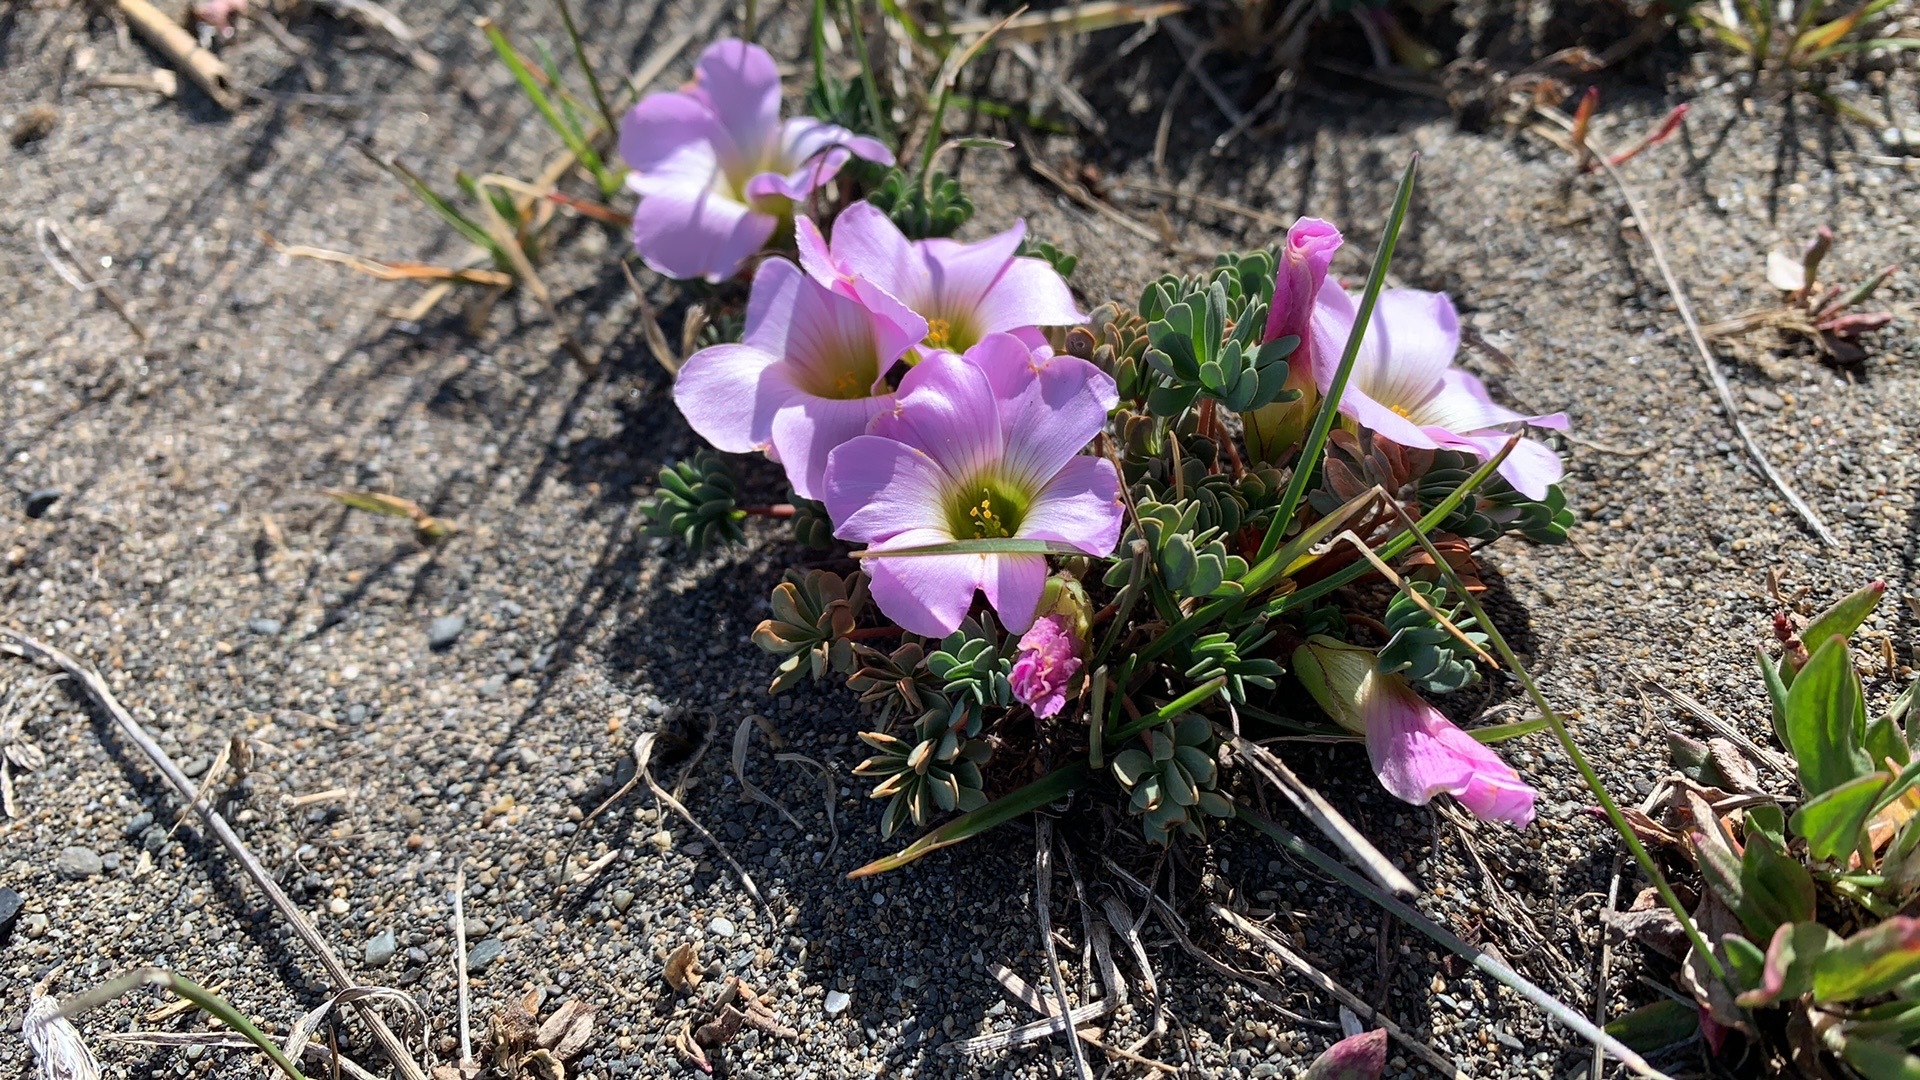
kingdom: Plantae
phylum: Tracheophyta
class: Magnoliopsida
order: Oxalidales
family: Oxalidaceae
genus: Oxalis
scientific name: Oxalis enneaphylla
